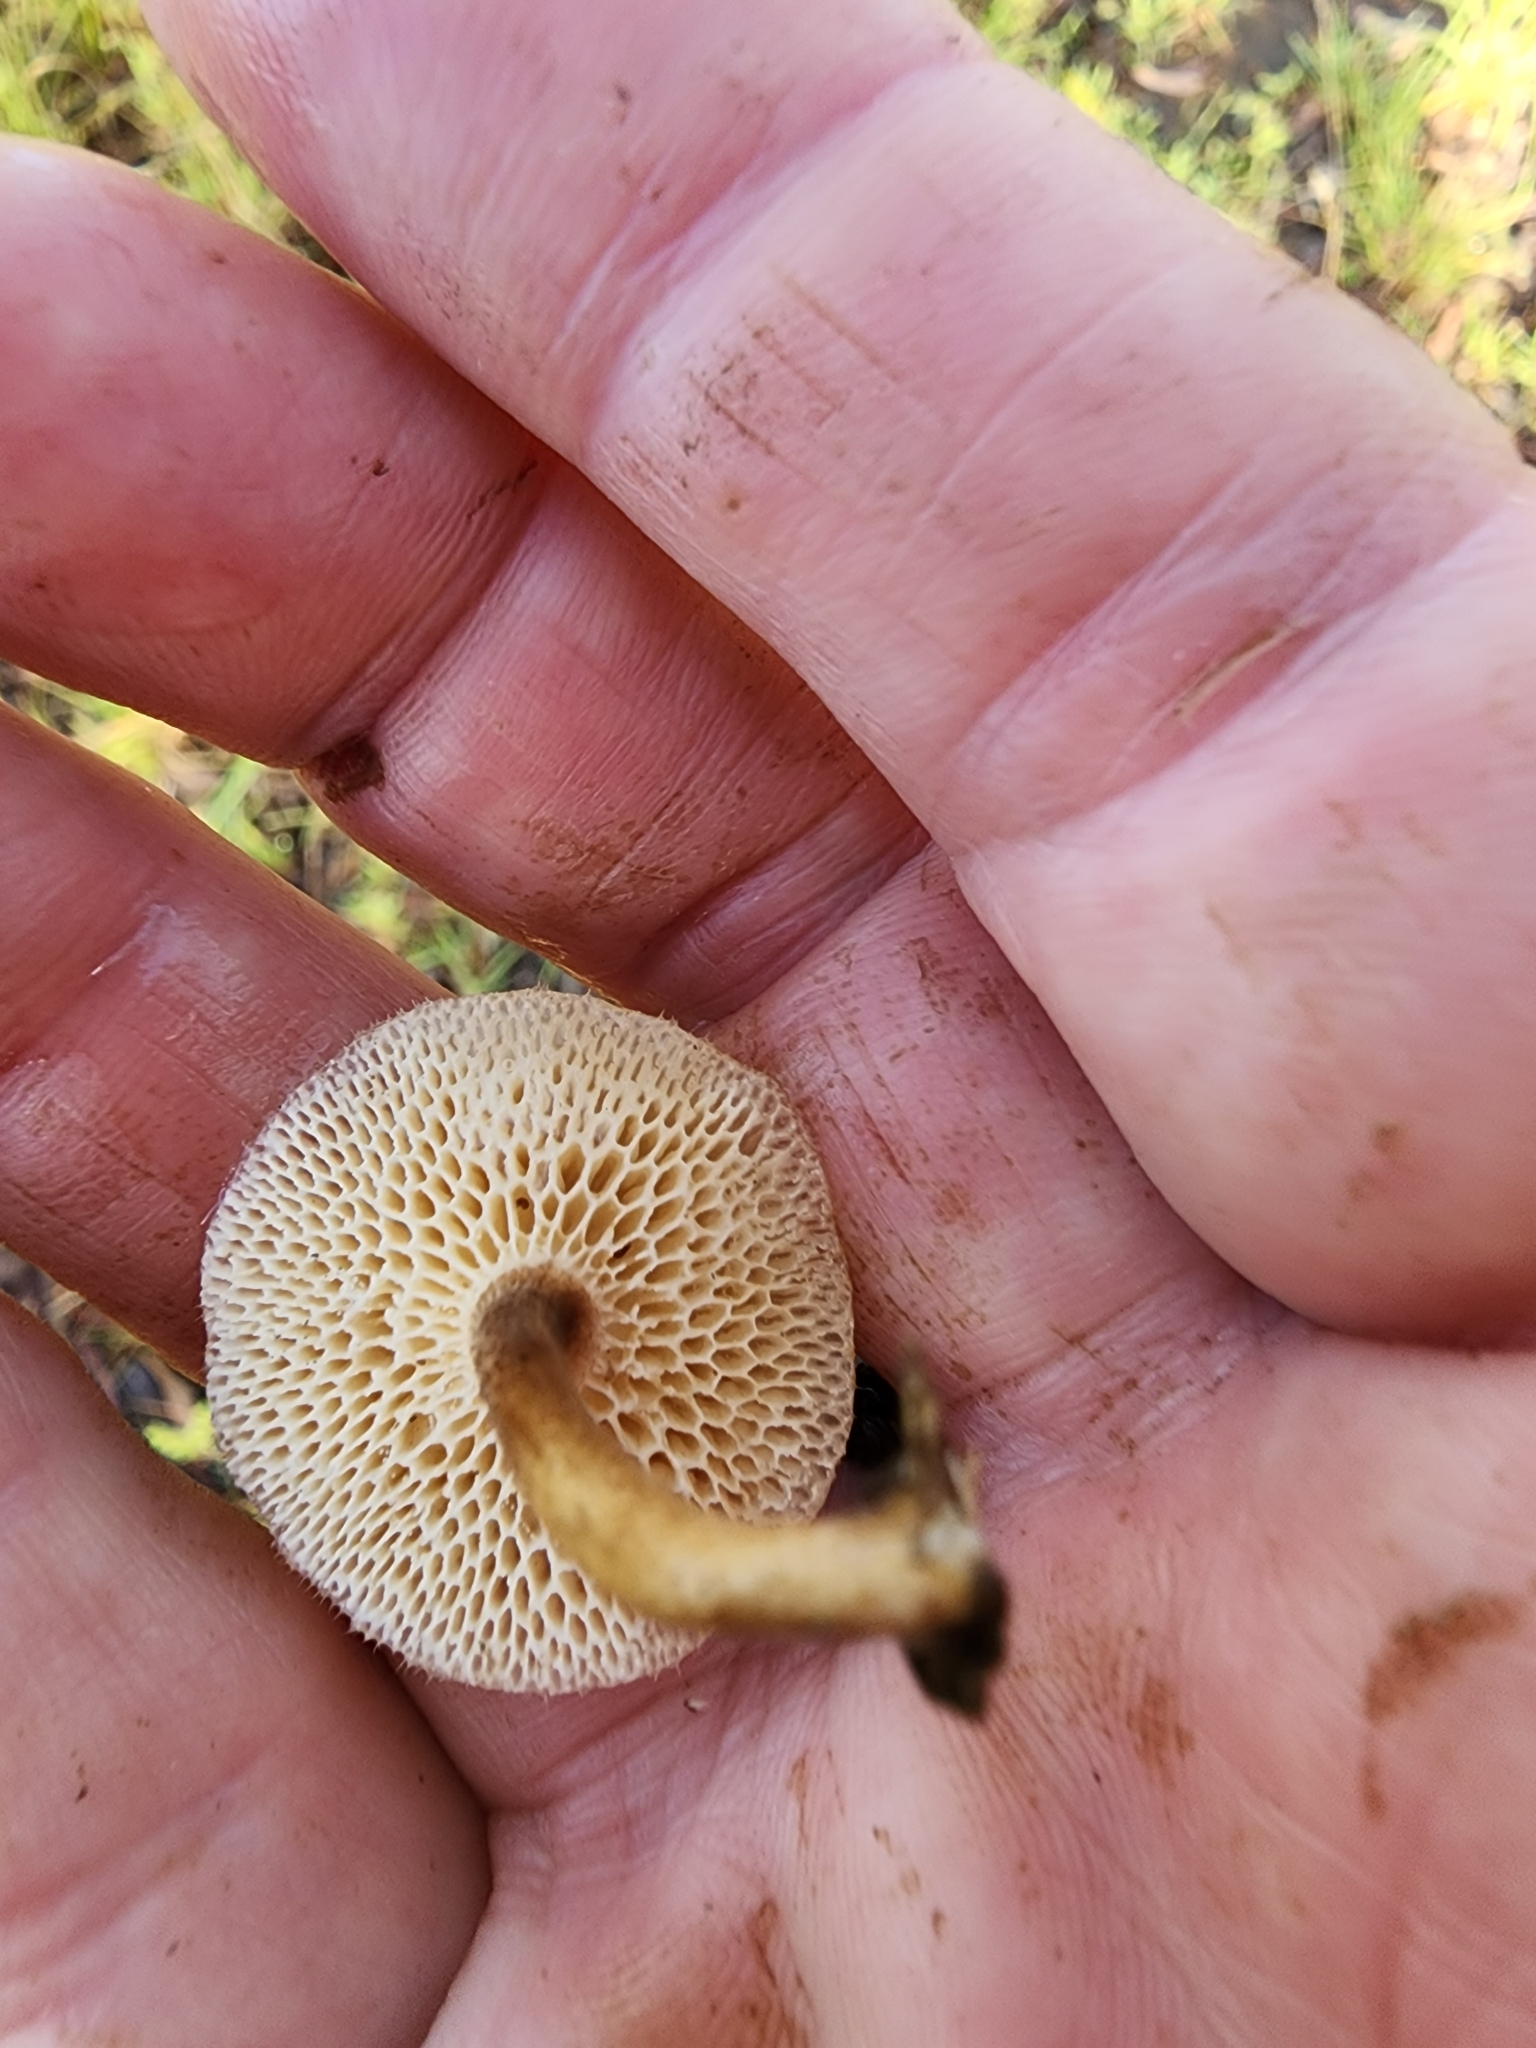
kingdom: Fungi
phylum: Basidiomycota
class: Agaricomycetes
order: Polyporales
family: Polyporaceae
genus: Lentinus
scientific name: Lentinus arcularius
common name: Spring polypore
